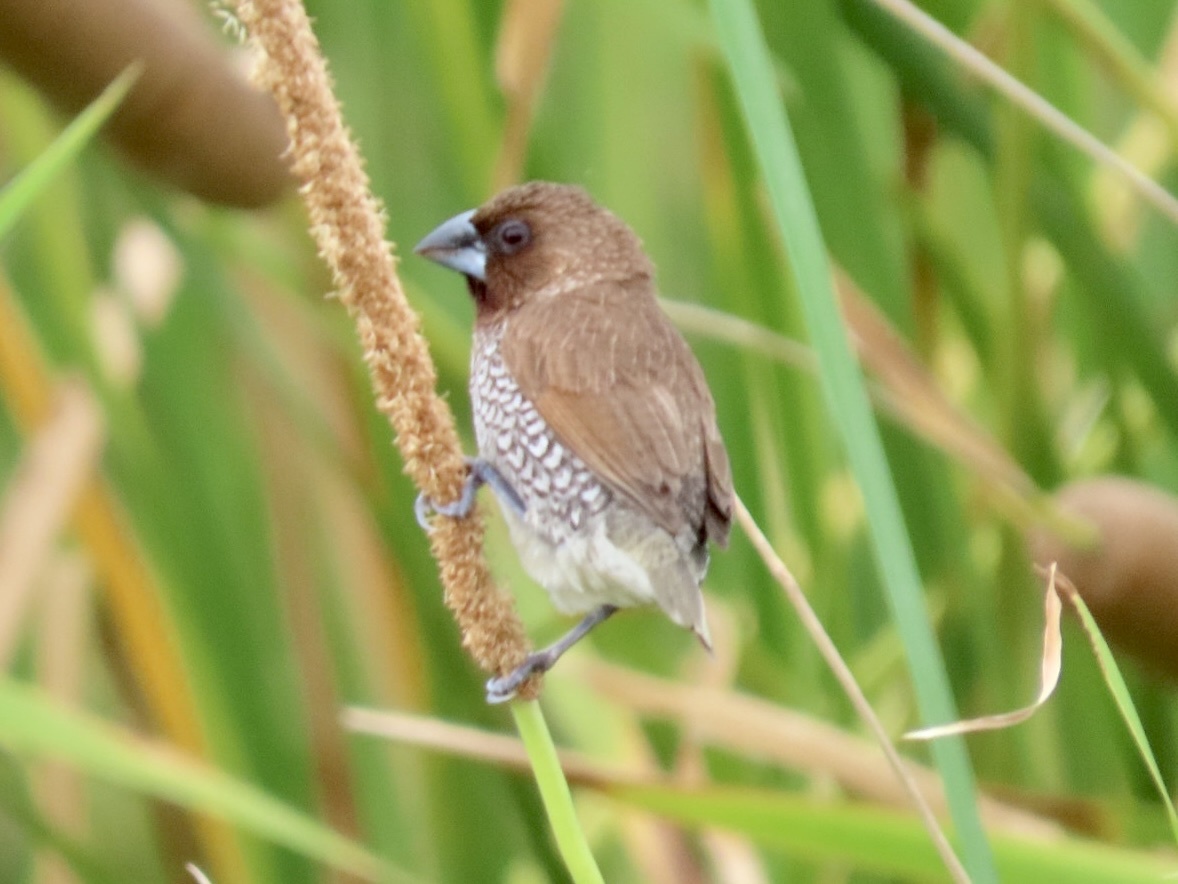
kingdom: Animalia
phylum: Chordata
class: Aves
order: Passeriformes
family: Estrildidae
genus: Lonchura
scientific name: Lonchura punctulata
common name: Scaly-breasted munia
